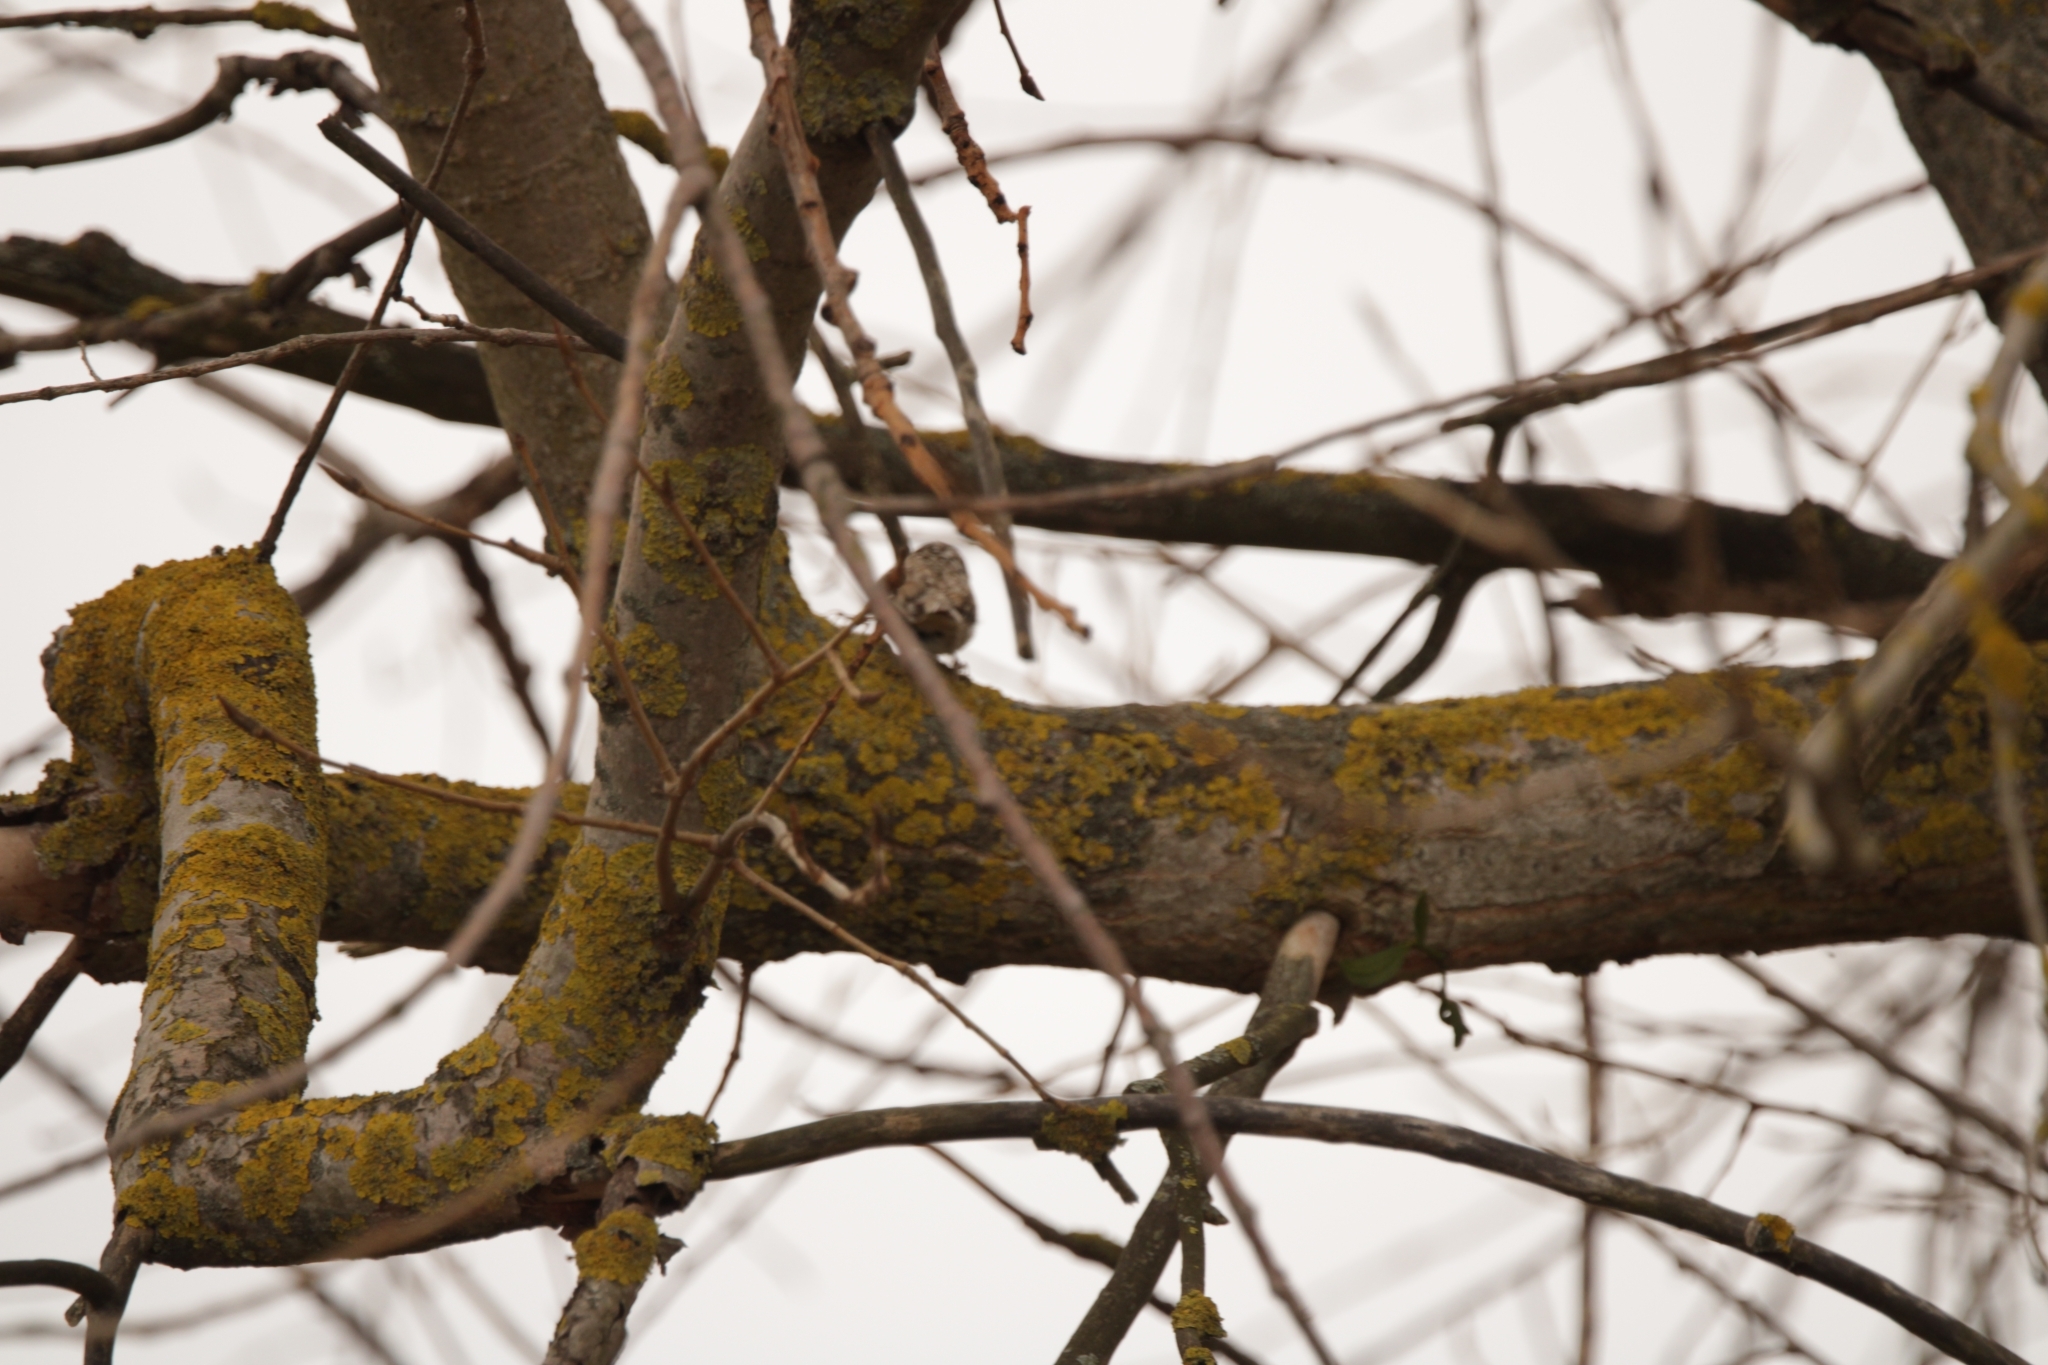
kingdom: Animalia
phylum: Chordata
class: Aves
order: Passeriformes
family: Certhiidae
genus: Certhia
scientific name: Certhia familiaris
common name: Eurasian treecreeper
